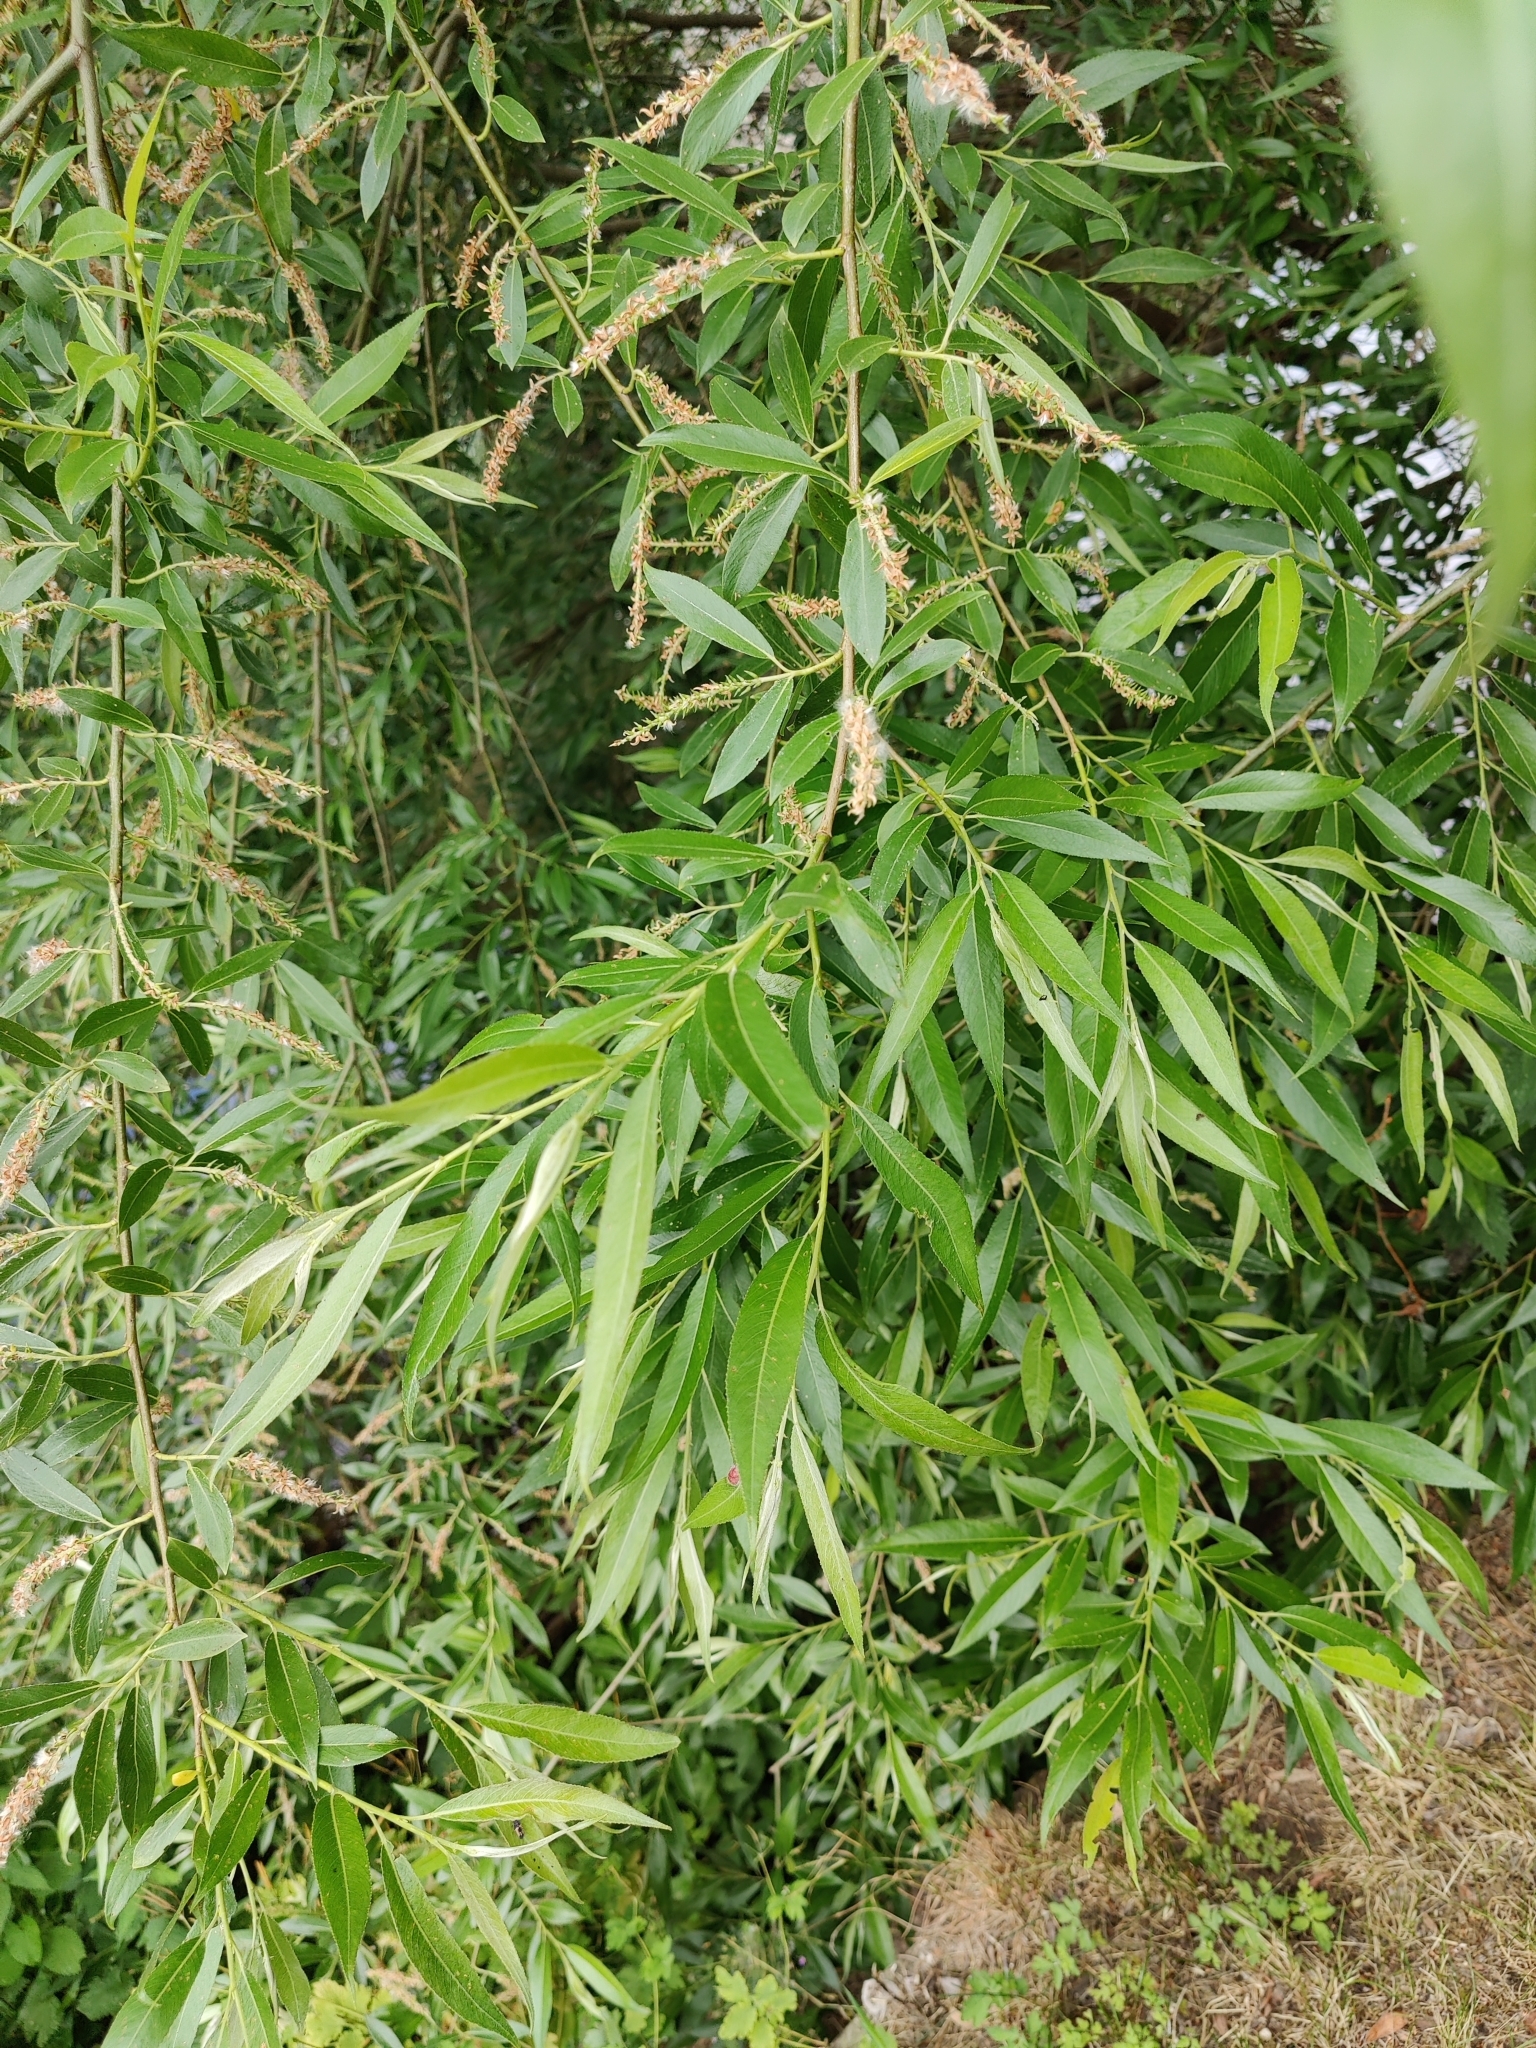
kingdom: Animalia
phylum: Arthropoda
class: Insecta
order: Coleoptera
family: Chrysomelidae
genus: Chrysomela
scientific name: Chrysomela vigintipunctata
